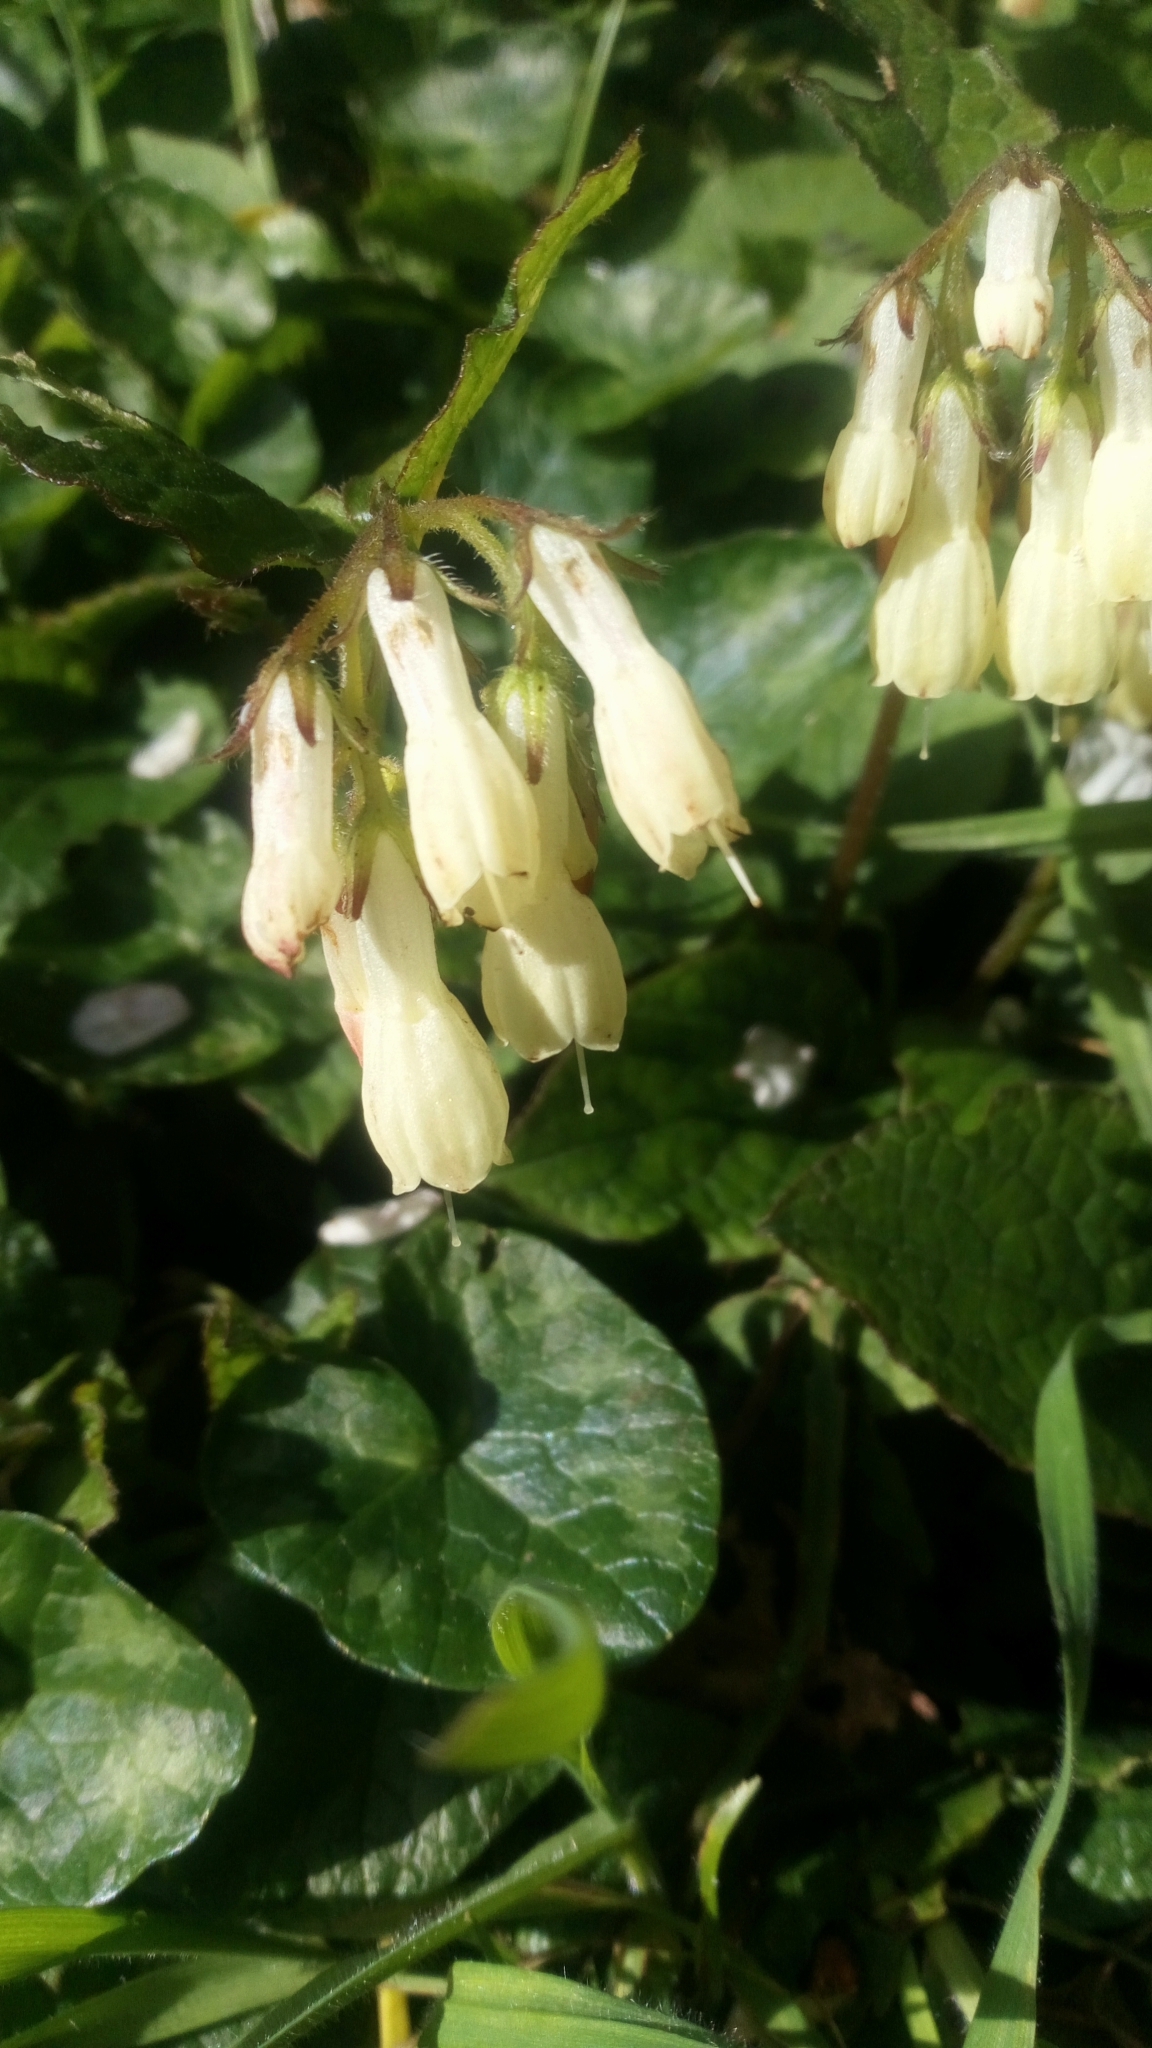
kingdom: Plantae
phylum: Tracheophyta
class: Magnoliopsida
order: Boraginales
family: Boraginaceae
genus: Symphytum
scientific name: Symphytum grandiflorum
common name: Creeping comfrey
